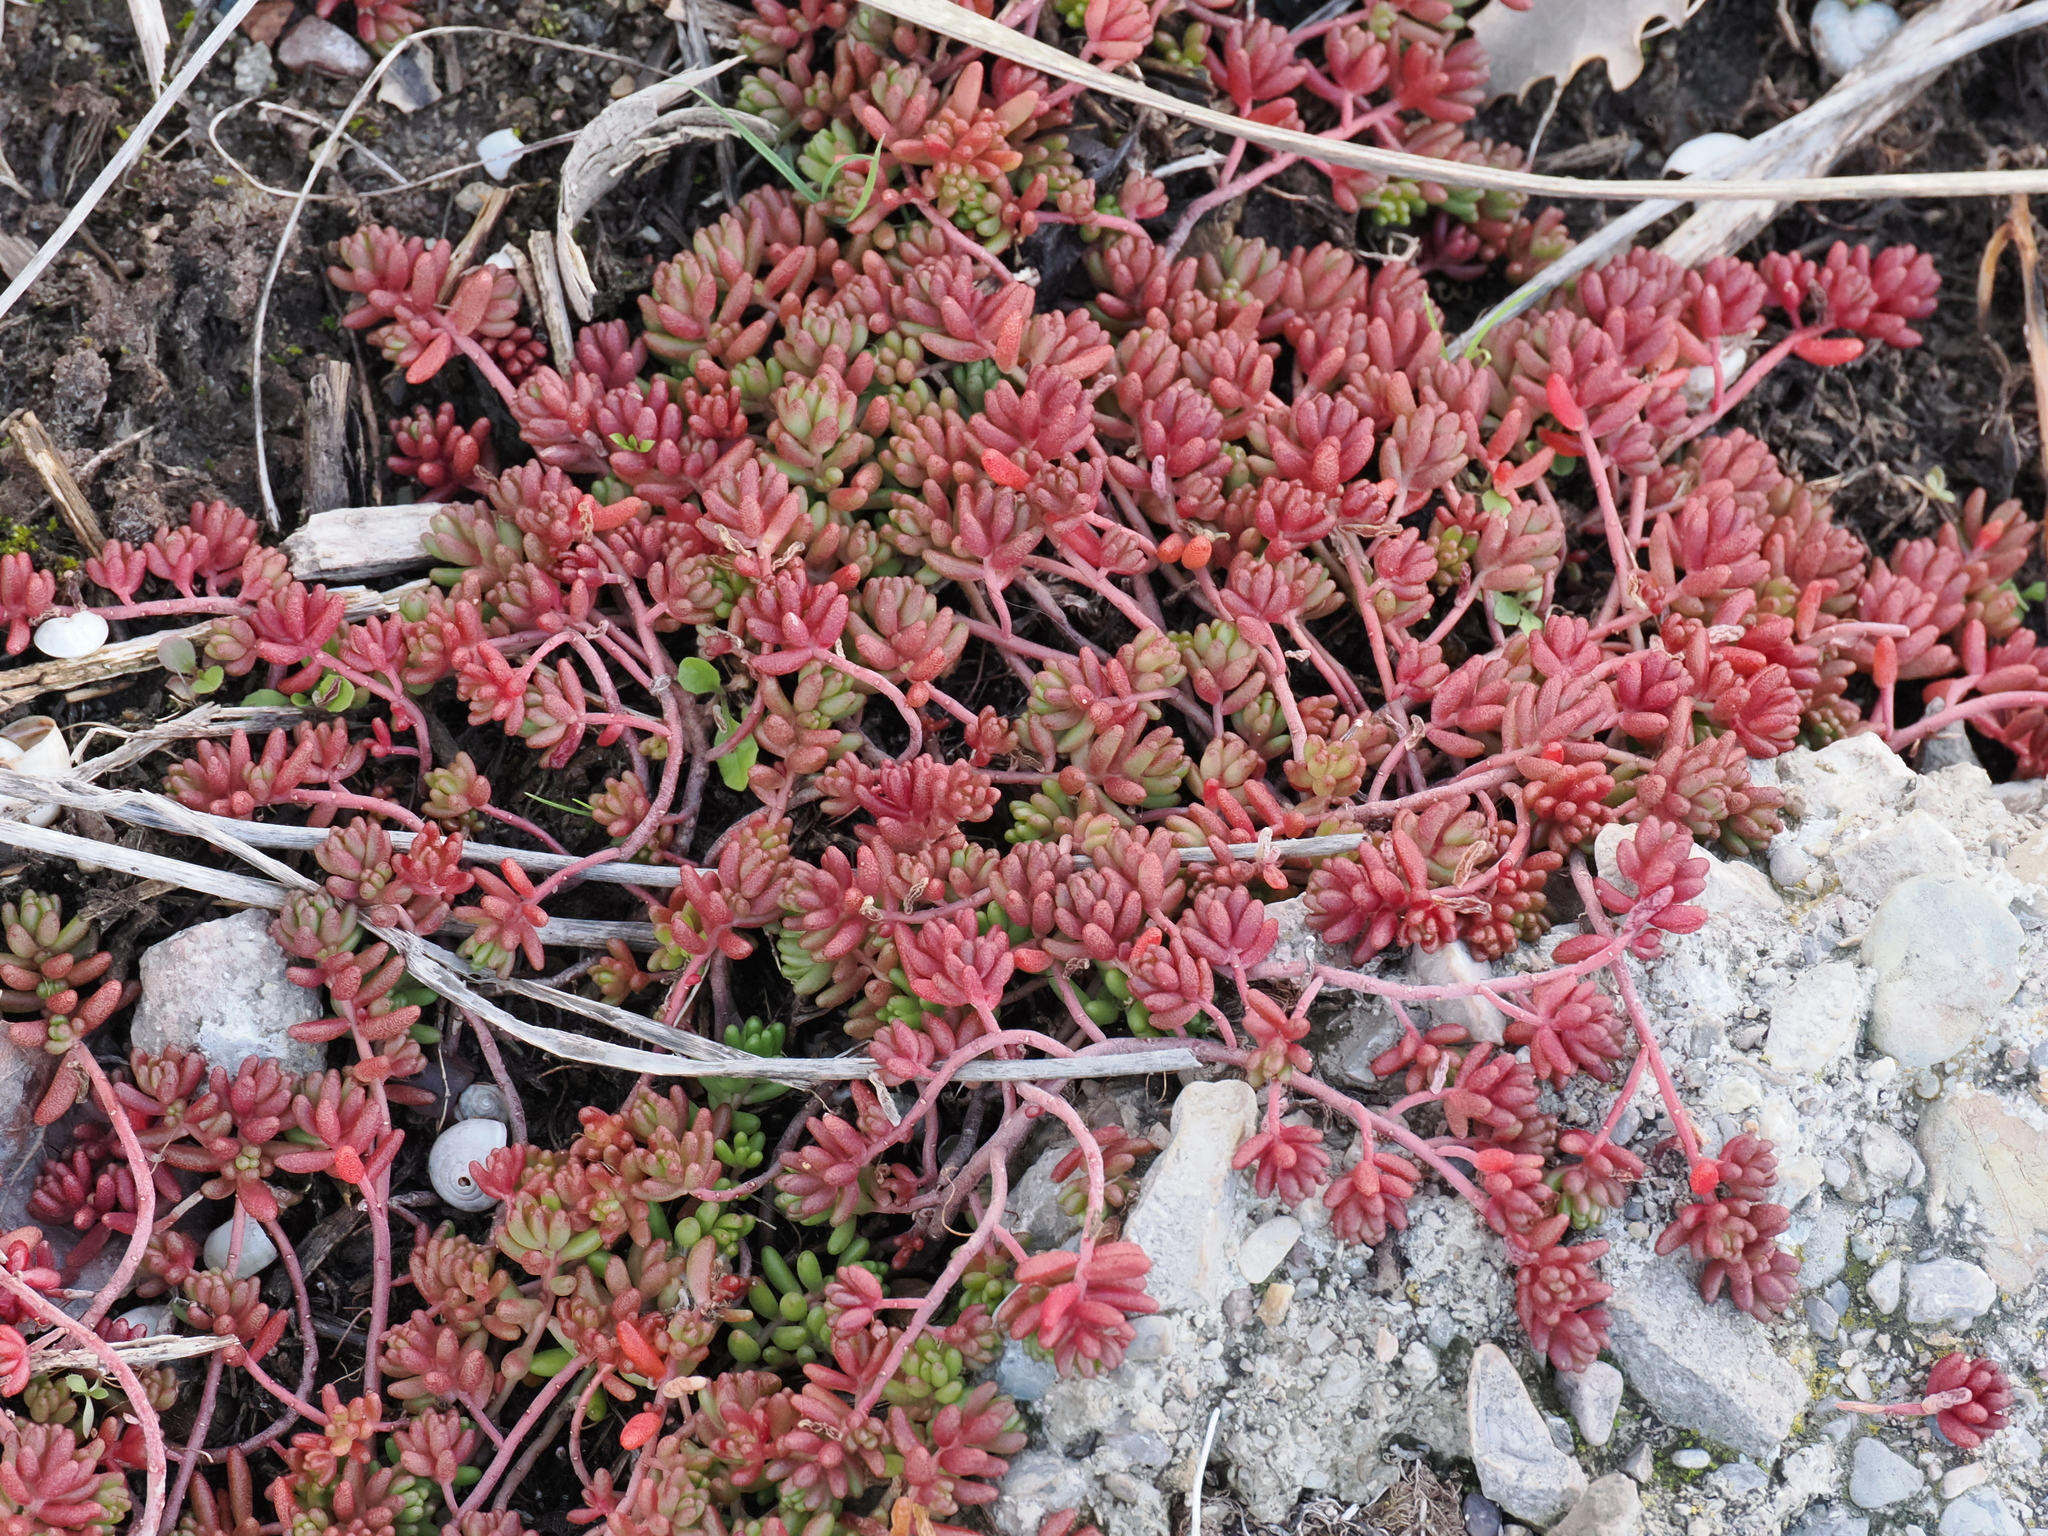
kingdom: Plantae
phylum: Tracheophyta
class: Magnoliopsida
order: Saxifragales
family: Crassulaceae
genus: Sedum
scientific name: Sedum album
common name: White stonecrop
